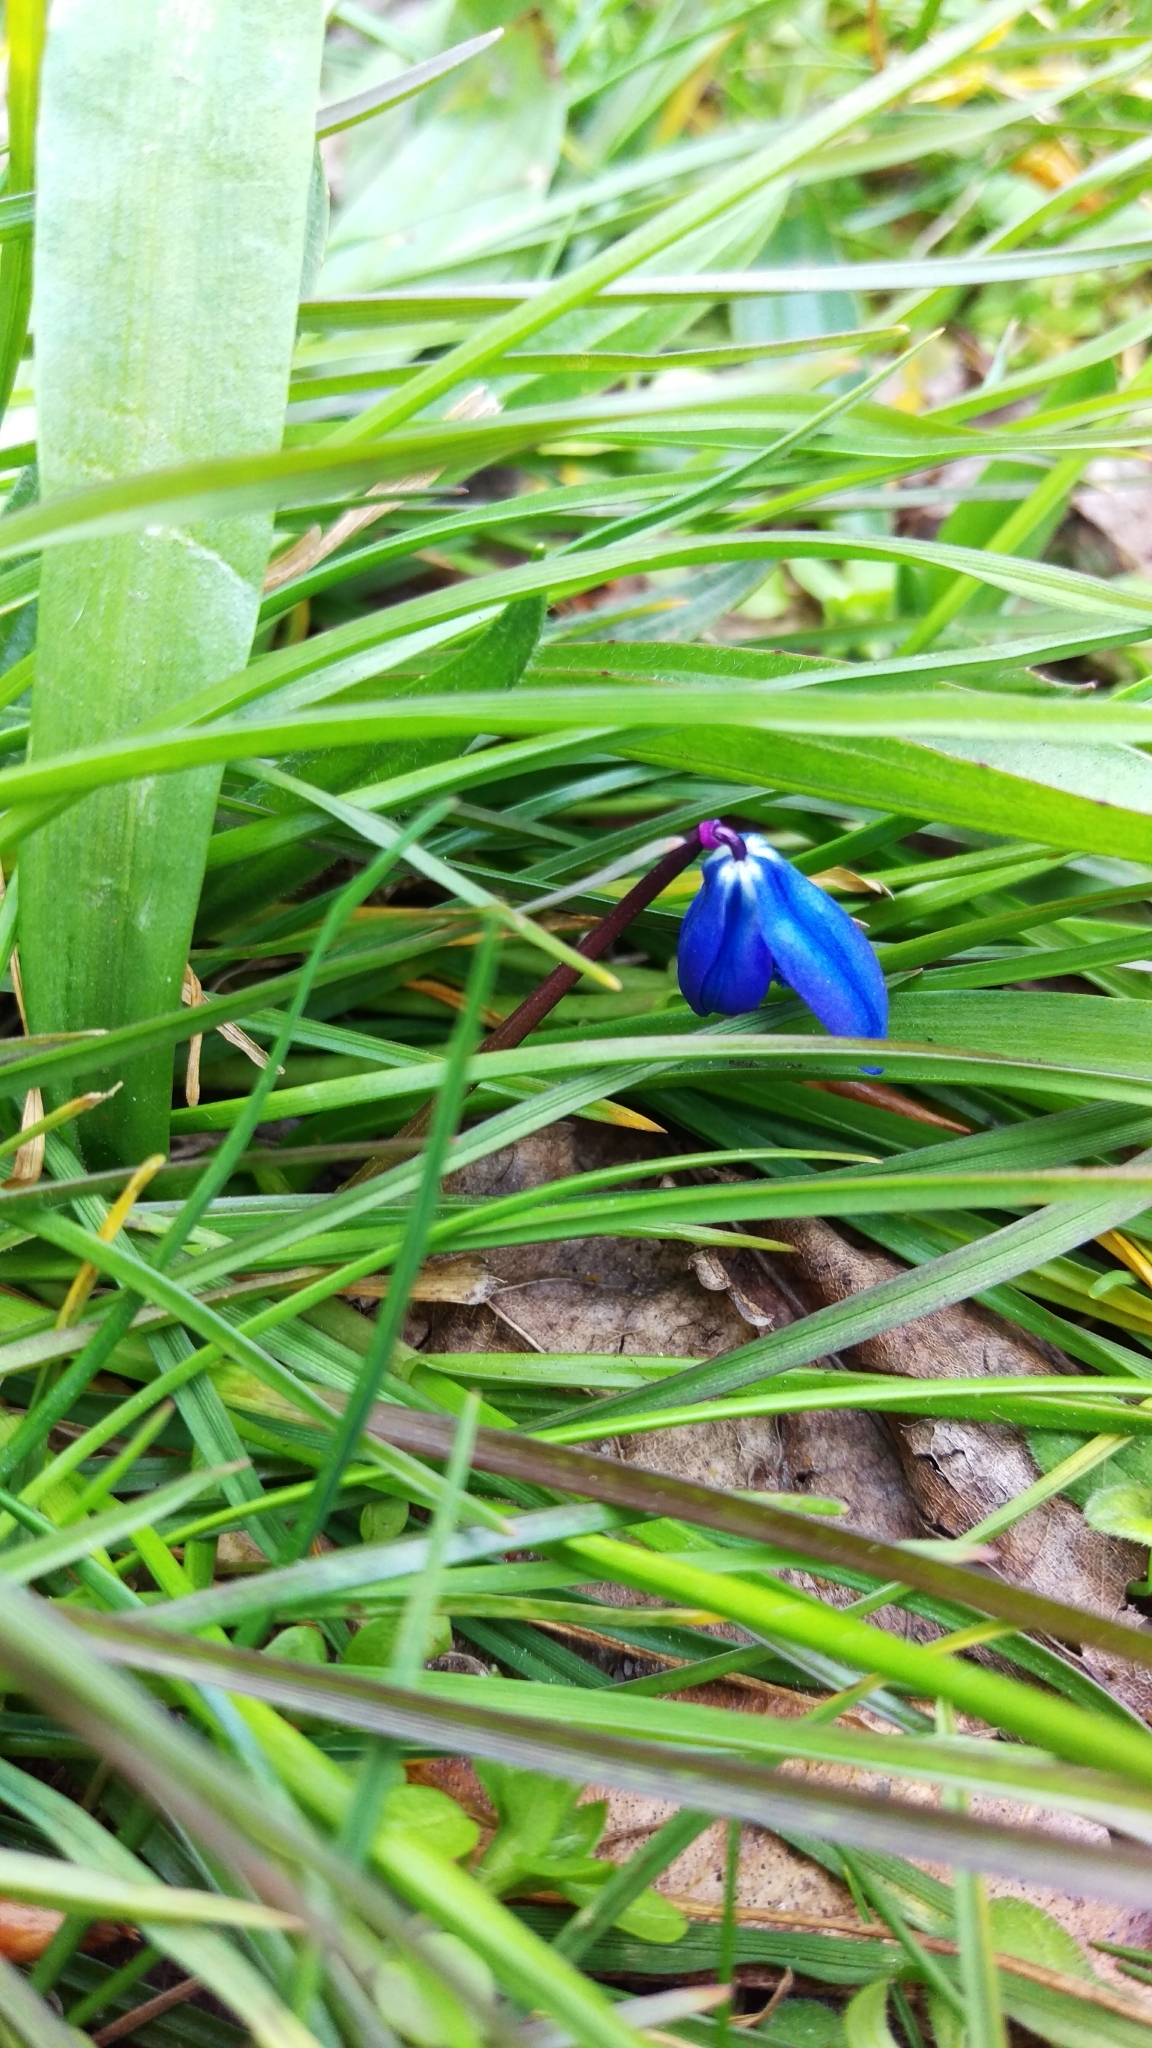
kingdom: Plantae
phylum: Tracheophyta
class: Liliopsida
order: Asparagales
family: Asparagaceae
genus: Scilla
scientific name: Scilla siberica
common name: Siberian squill
